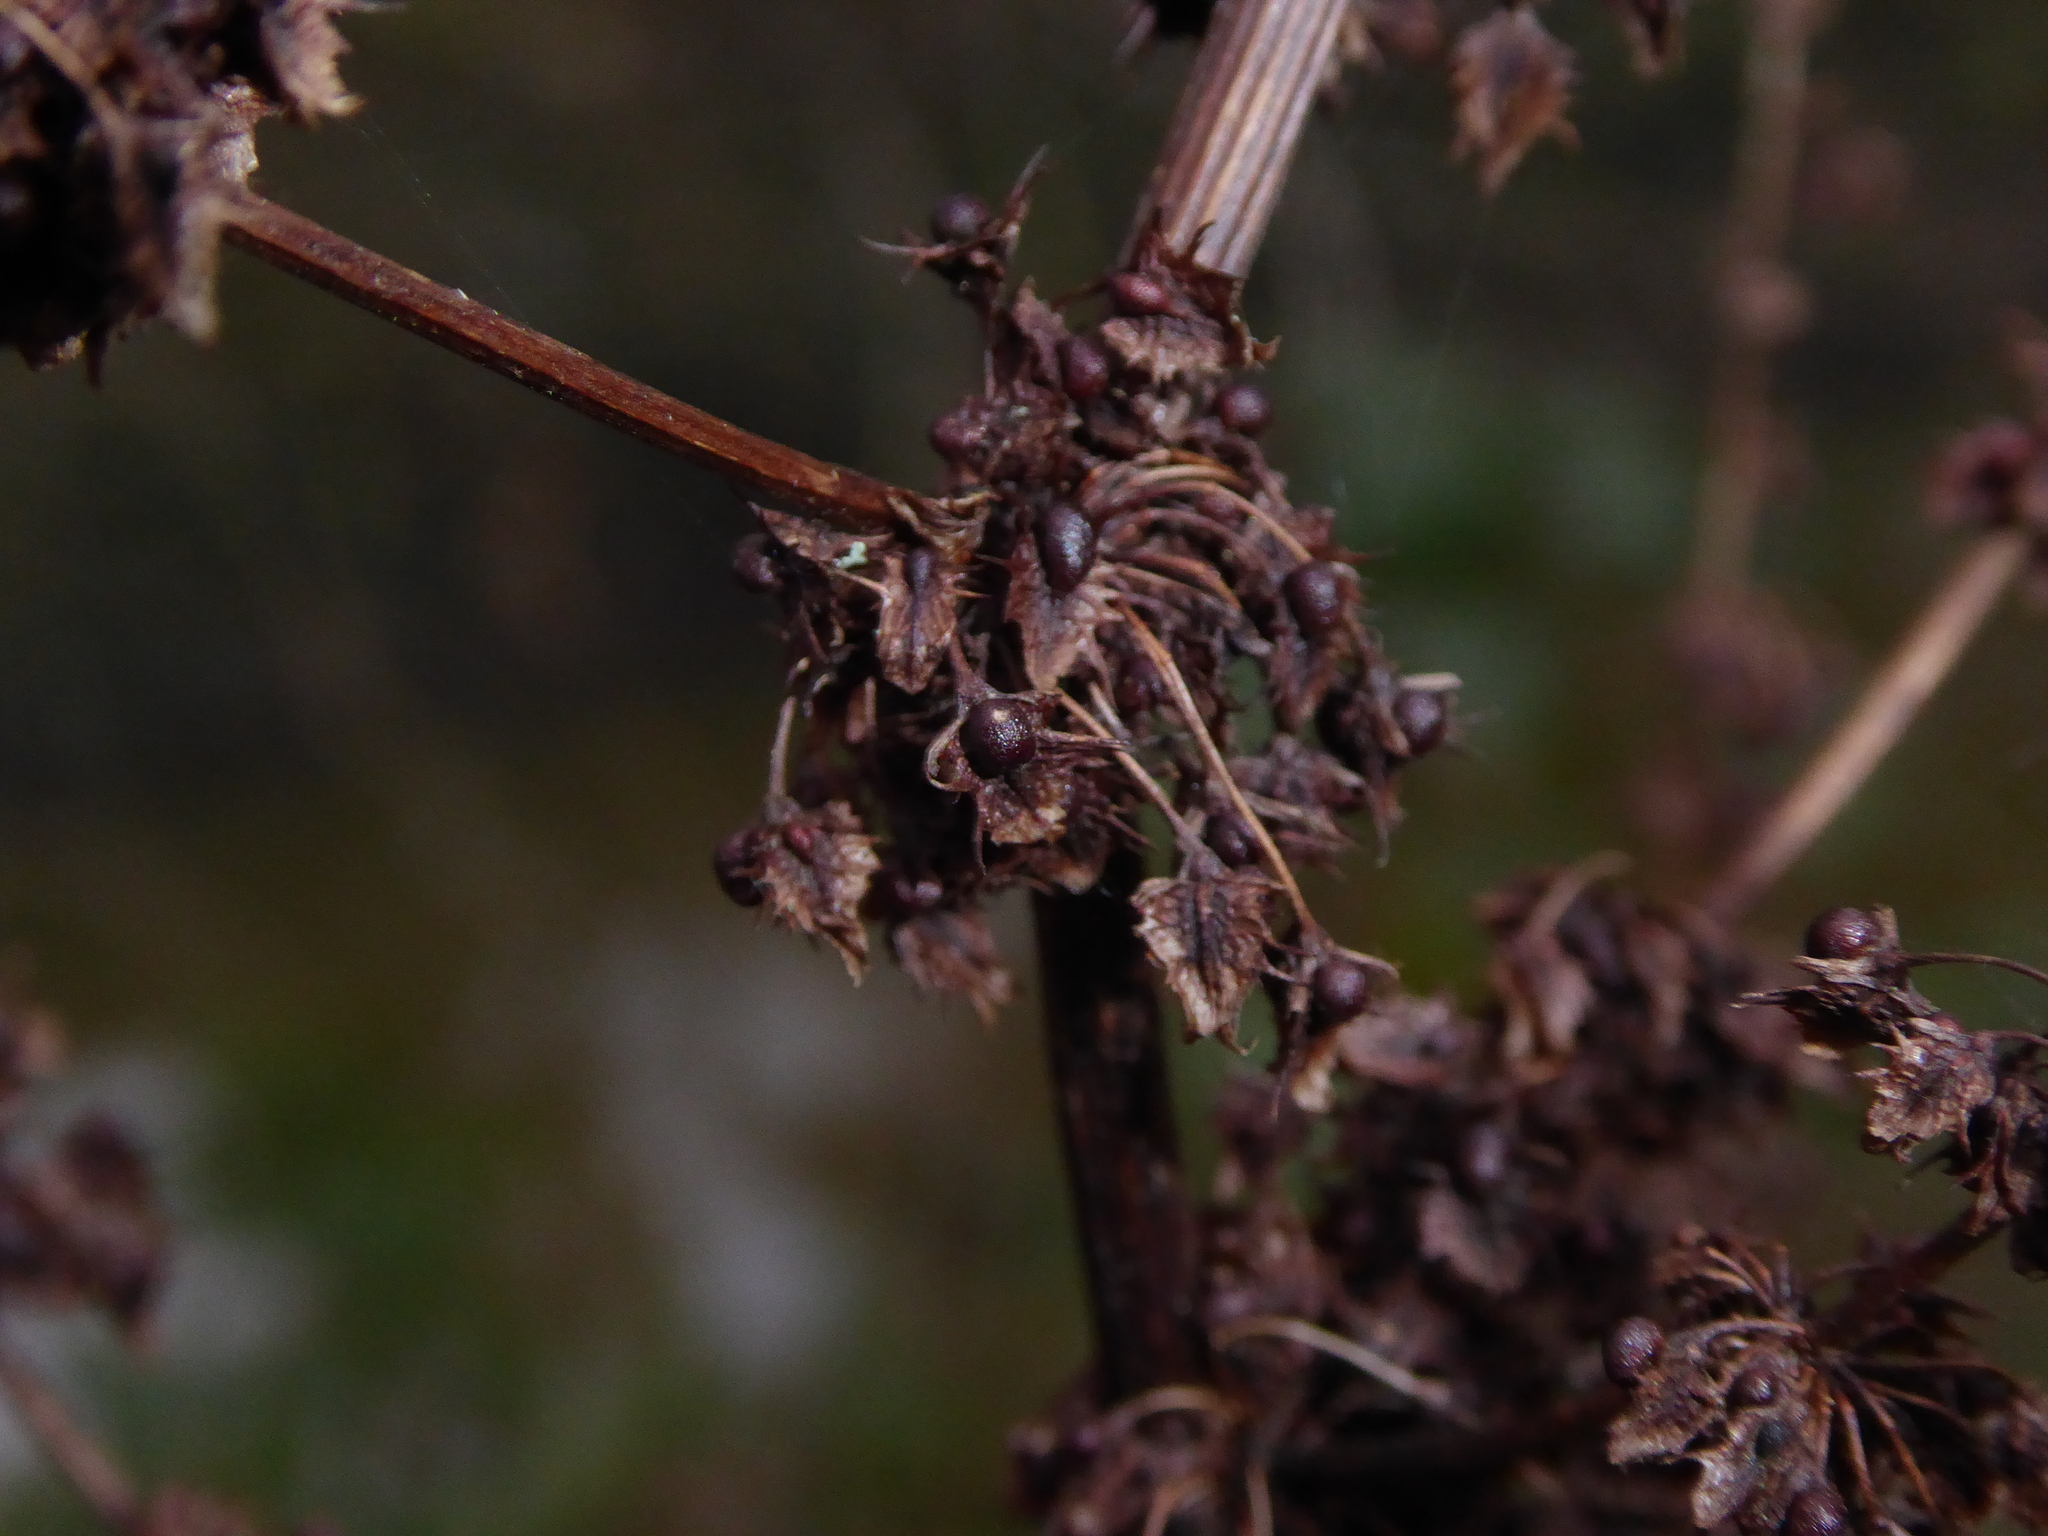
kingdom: Plantae
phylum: Tracheophyta
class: Magnoliopsida
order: Caryophyllales
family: Polygonaceae
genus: Rumex
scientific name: Rumex obtusifolius
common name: Bitter dock
